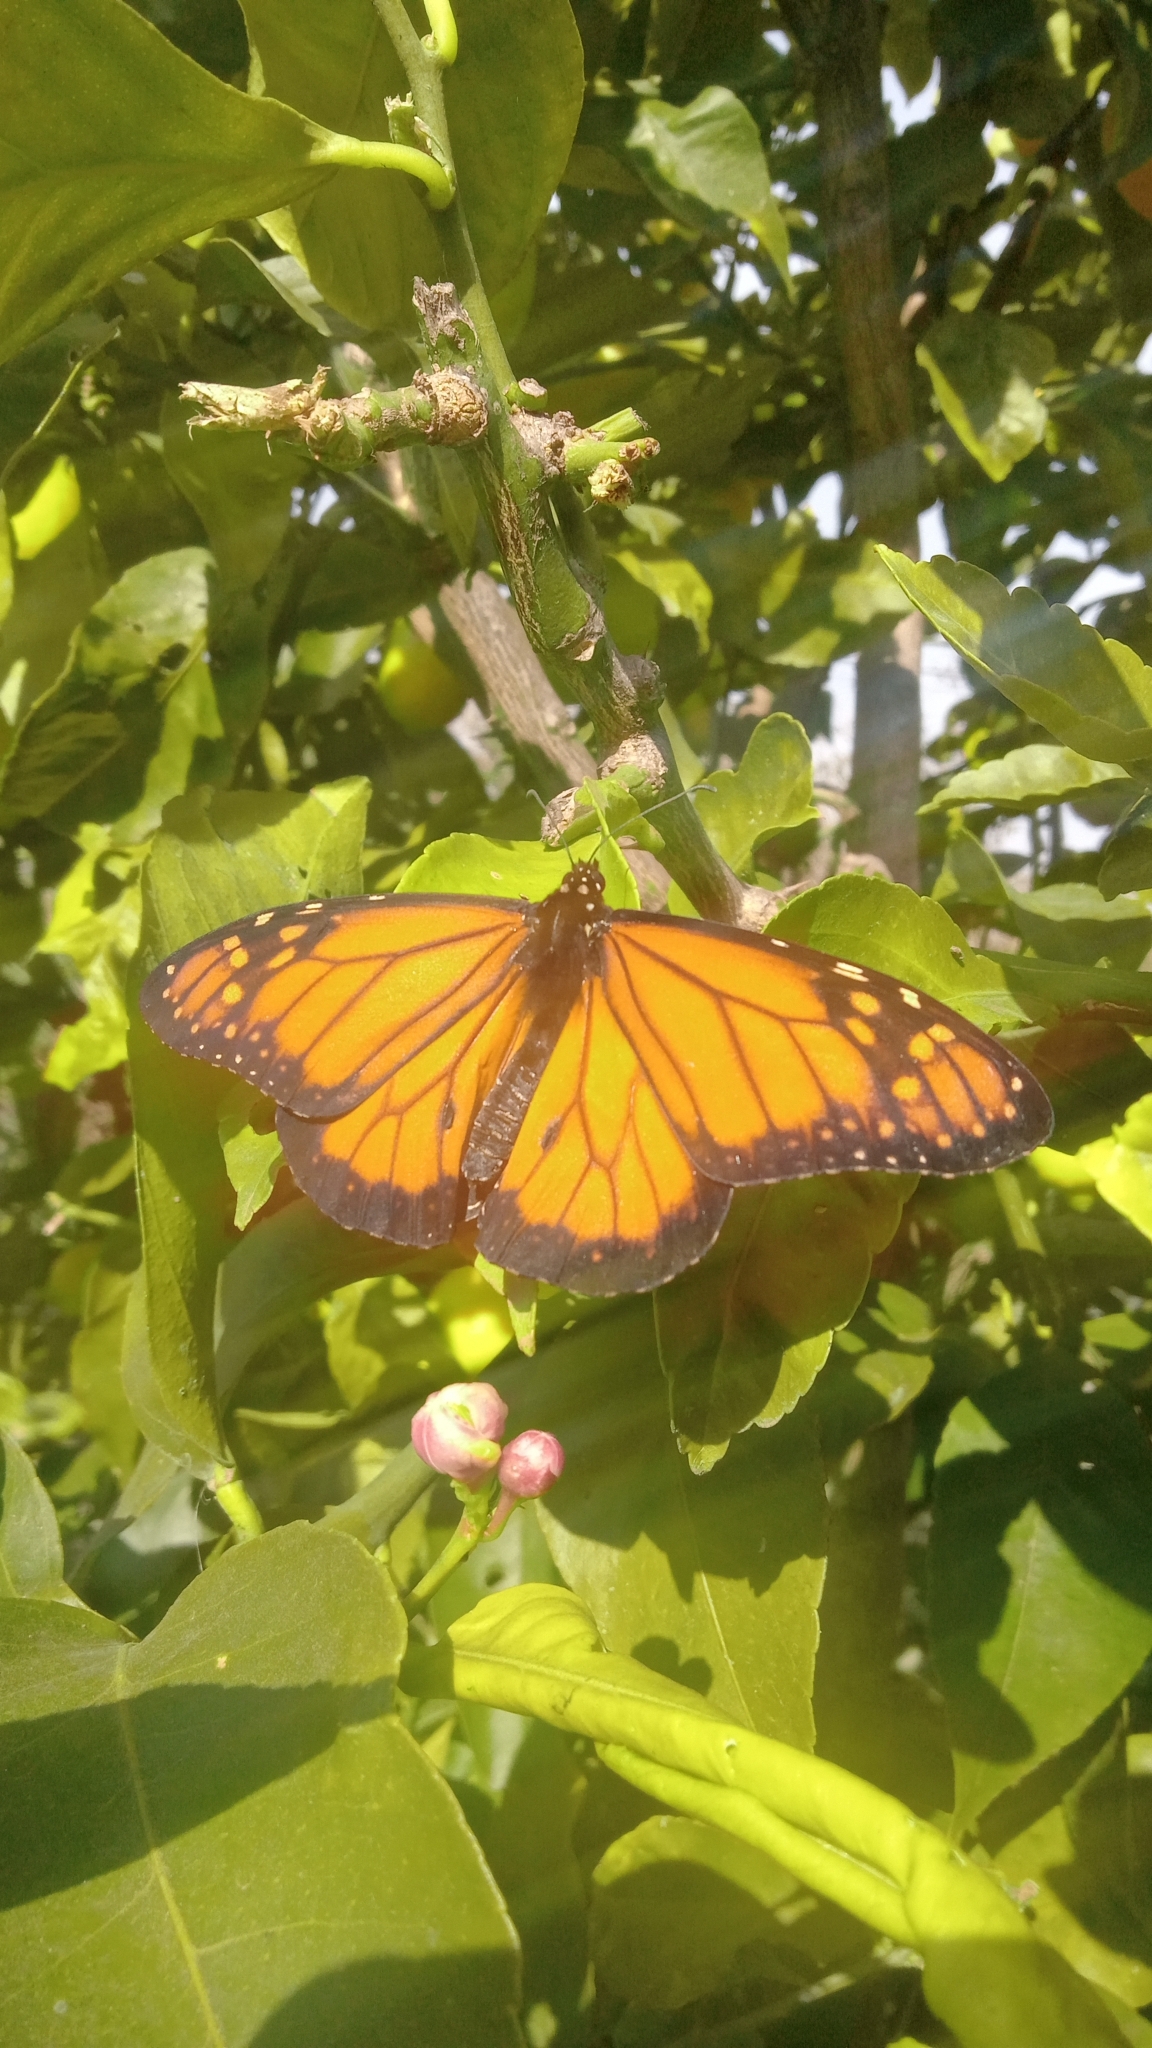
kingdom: Animalia
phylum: Arthropoda
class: Insecta
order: Lepidoptera
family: Nymphalidae
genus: Danaus
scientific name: Danaus erippus
